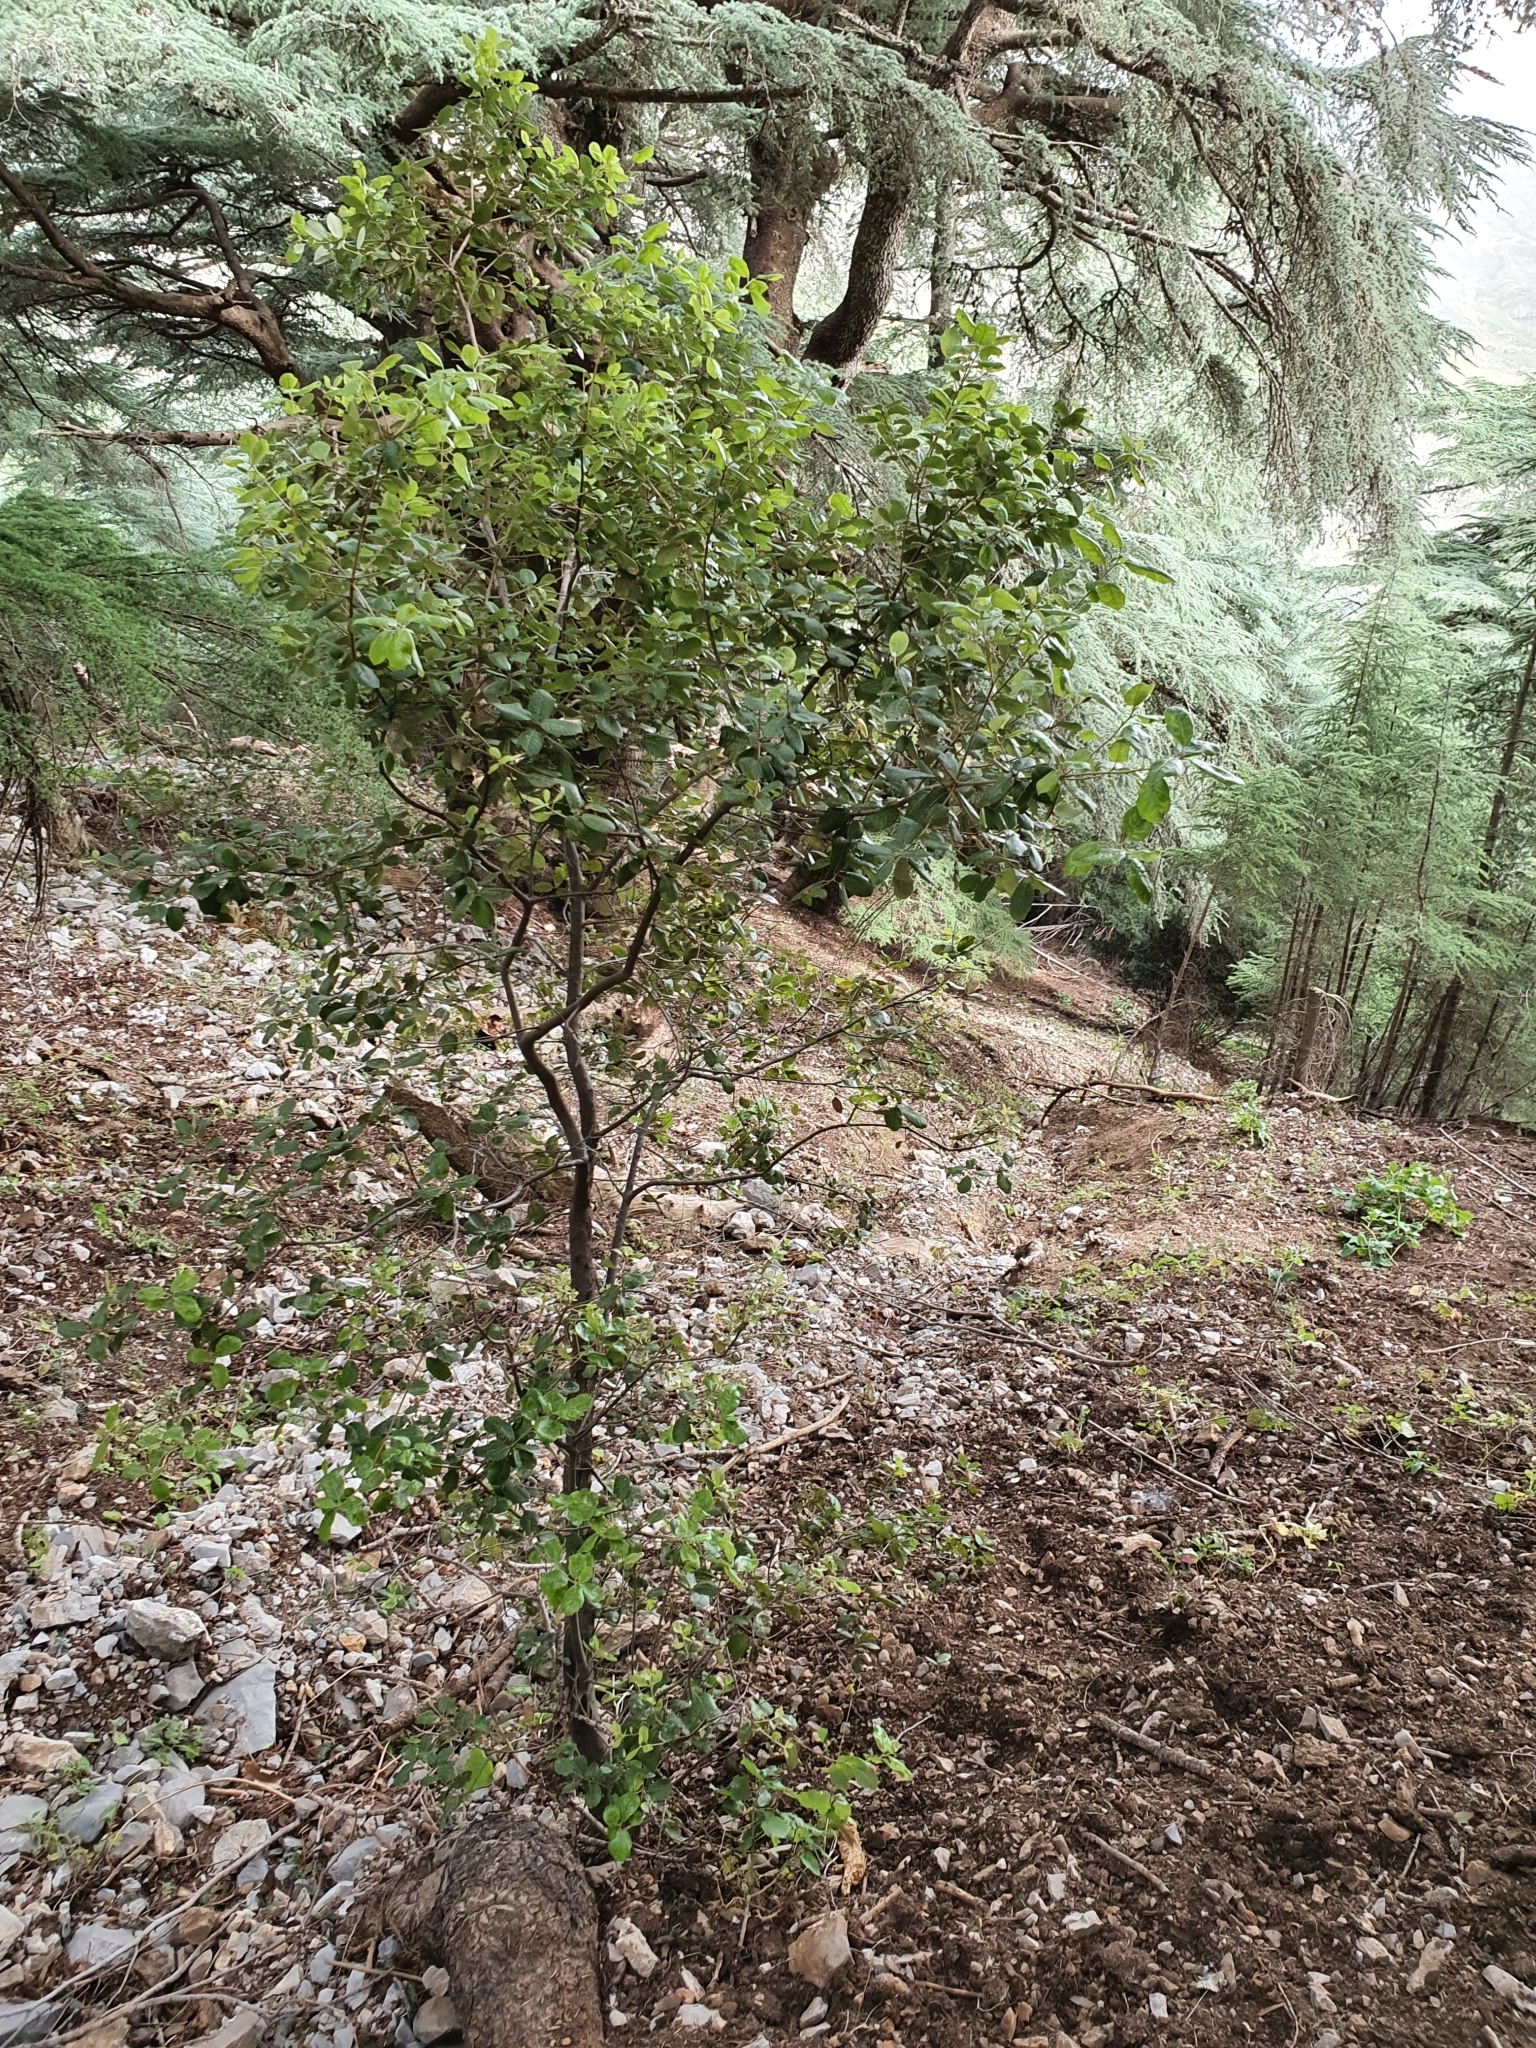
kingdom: Plantae
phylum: Tracheophyta
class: Magnoliopsida
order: Fagales
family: Fagaceae
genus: Quercus
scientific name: Quercus rotundifolia
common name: Holm oak
